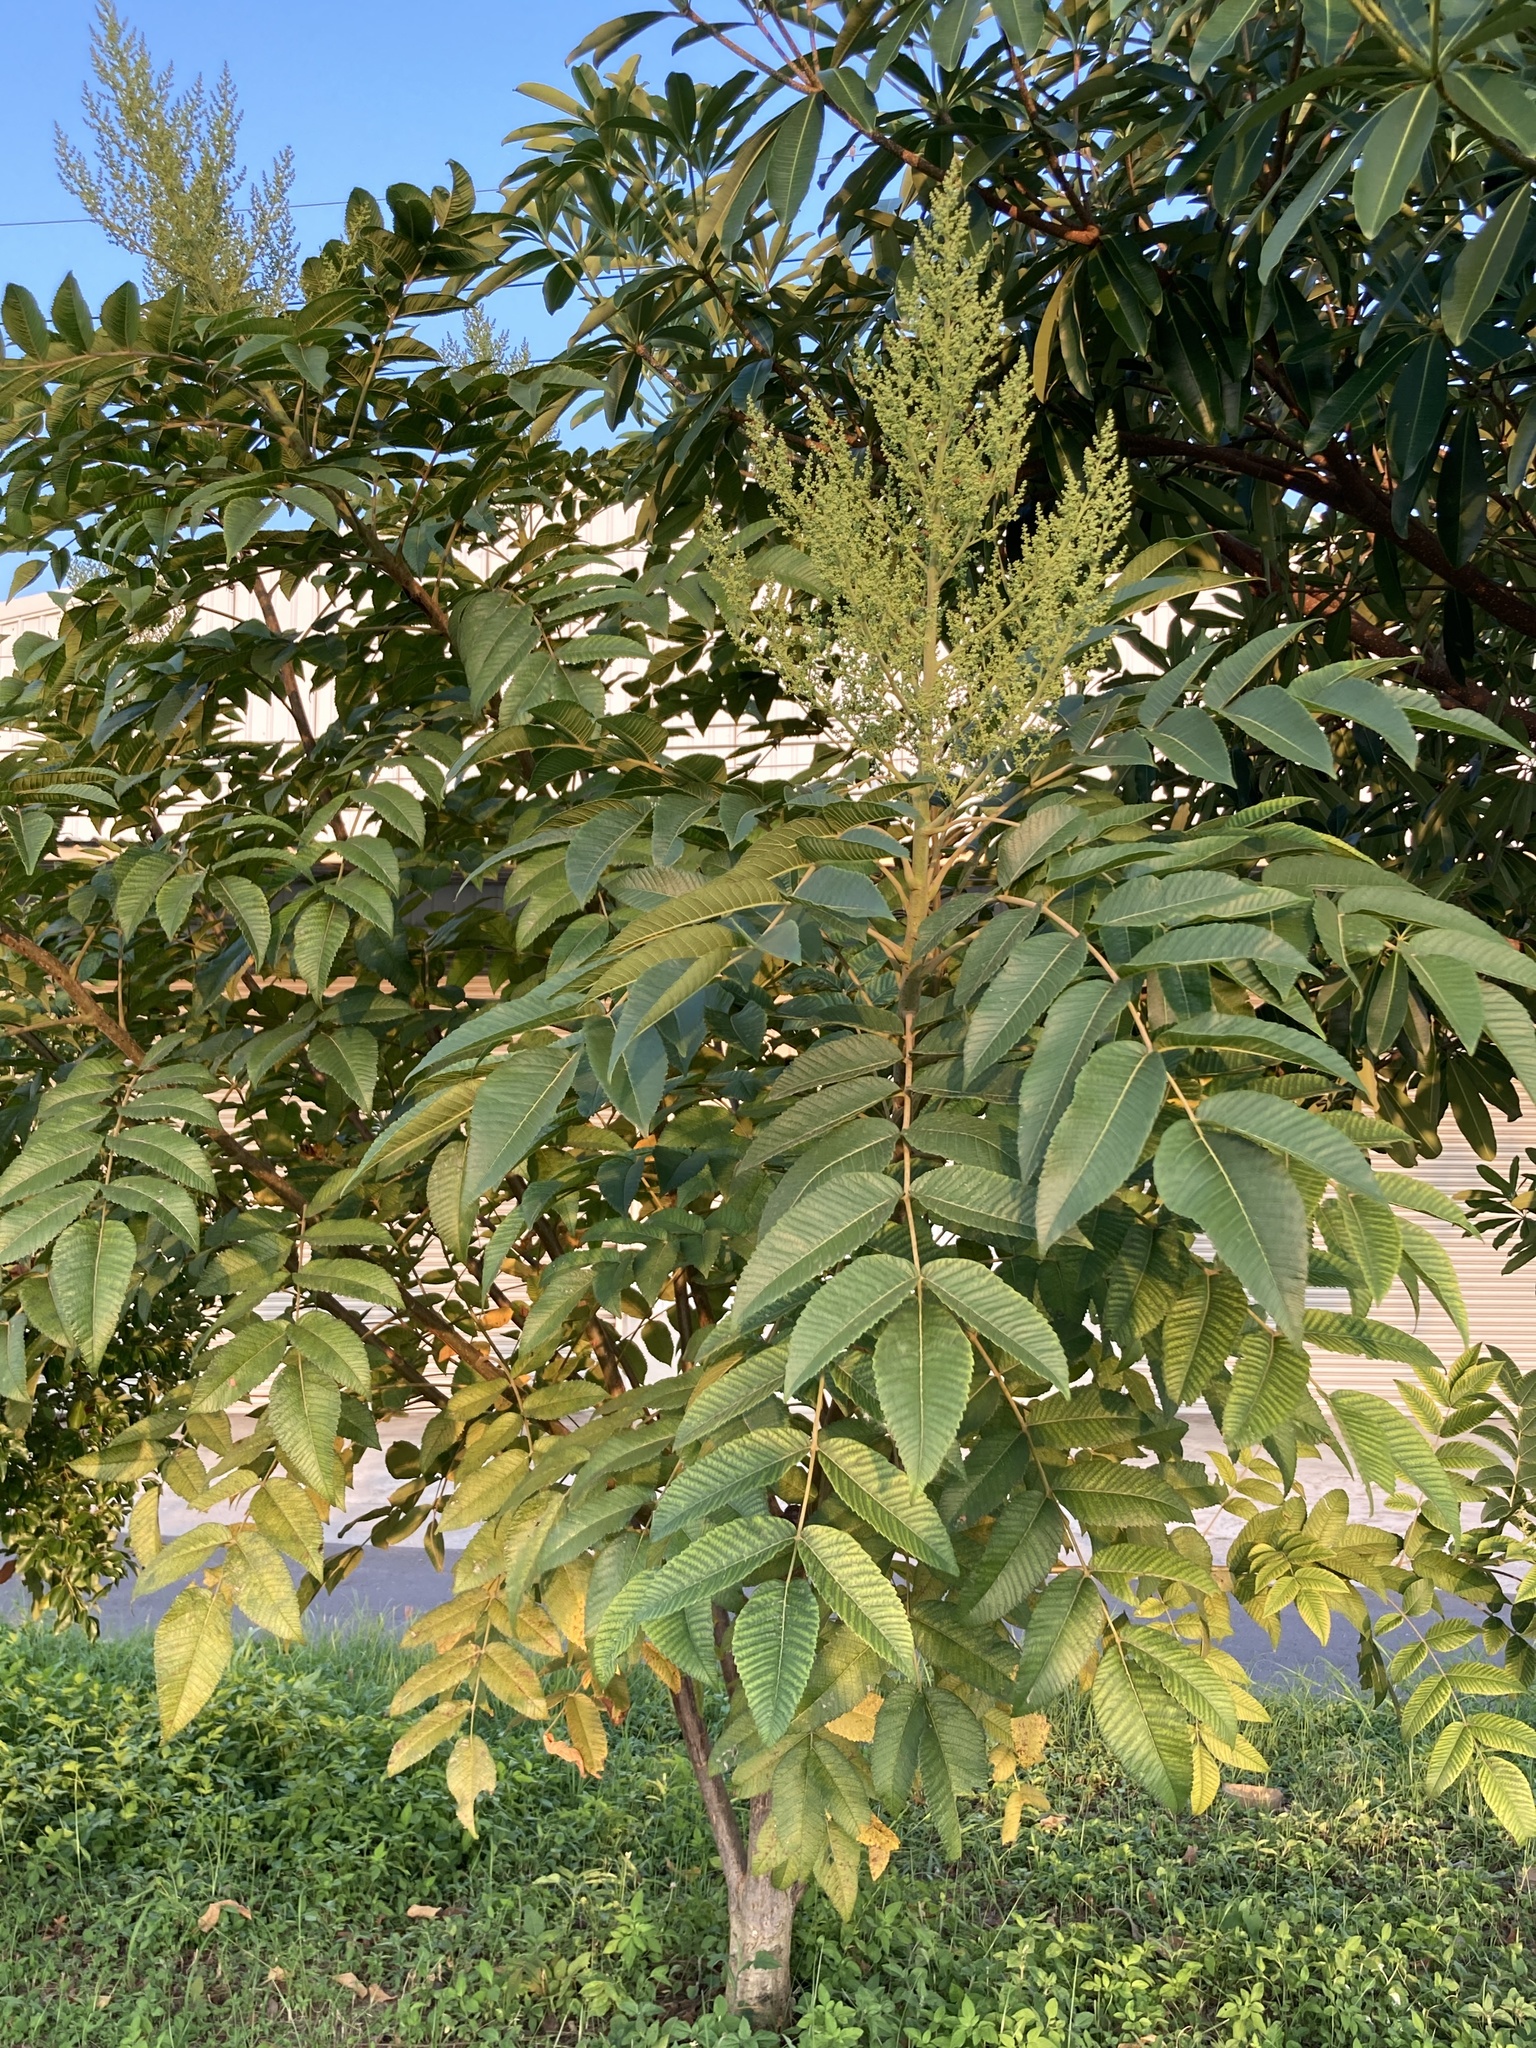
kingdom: Plantae
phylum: Tracheophyta
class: Magnoliopsida
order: Sapindales
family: Anacardiaceae
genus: Rhus
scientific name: Rhus chinensis
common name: Chinese gall
